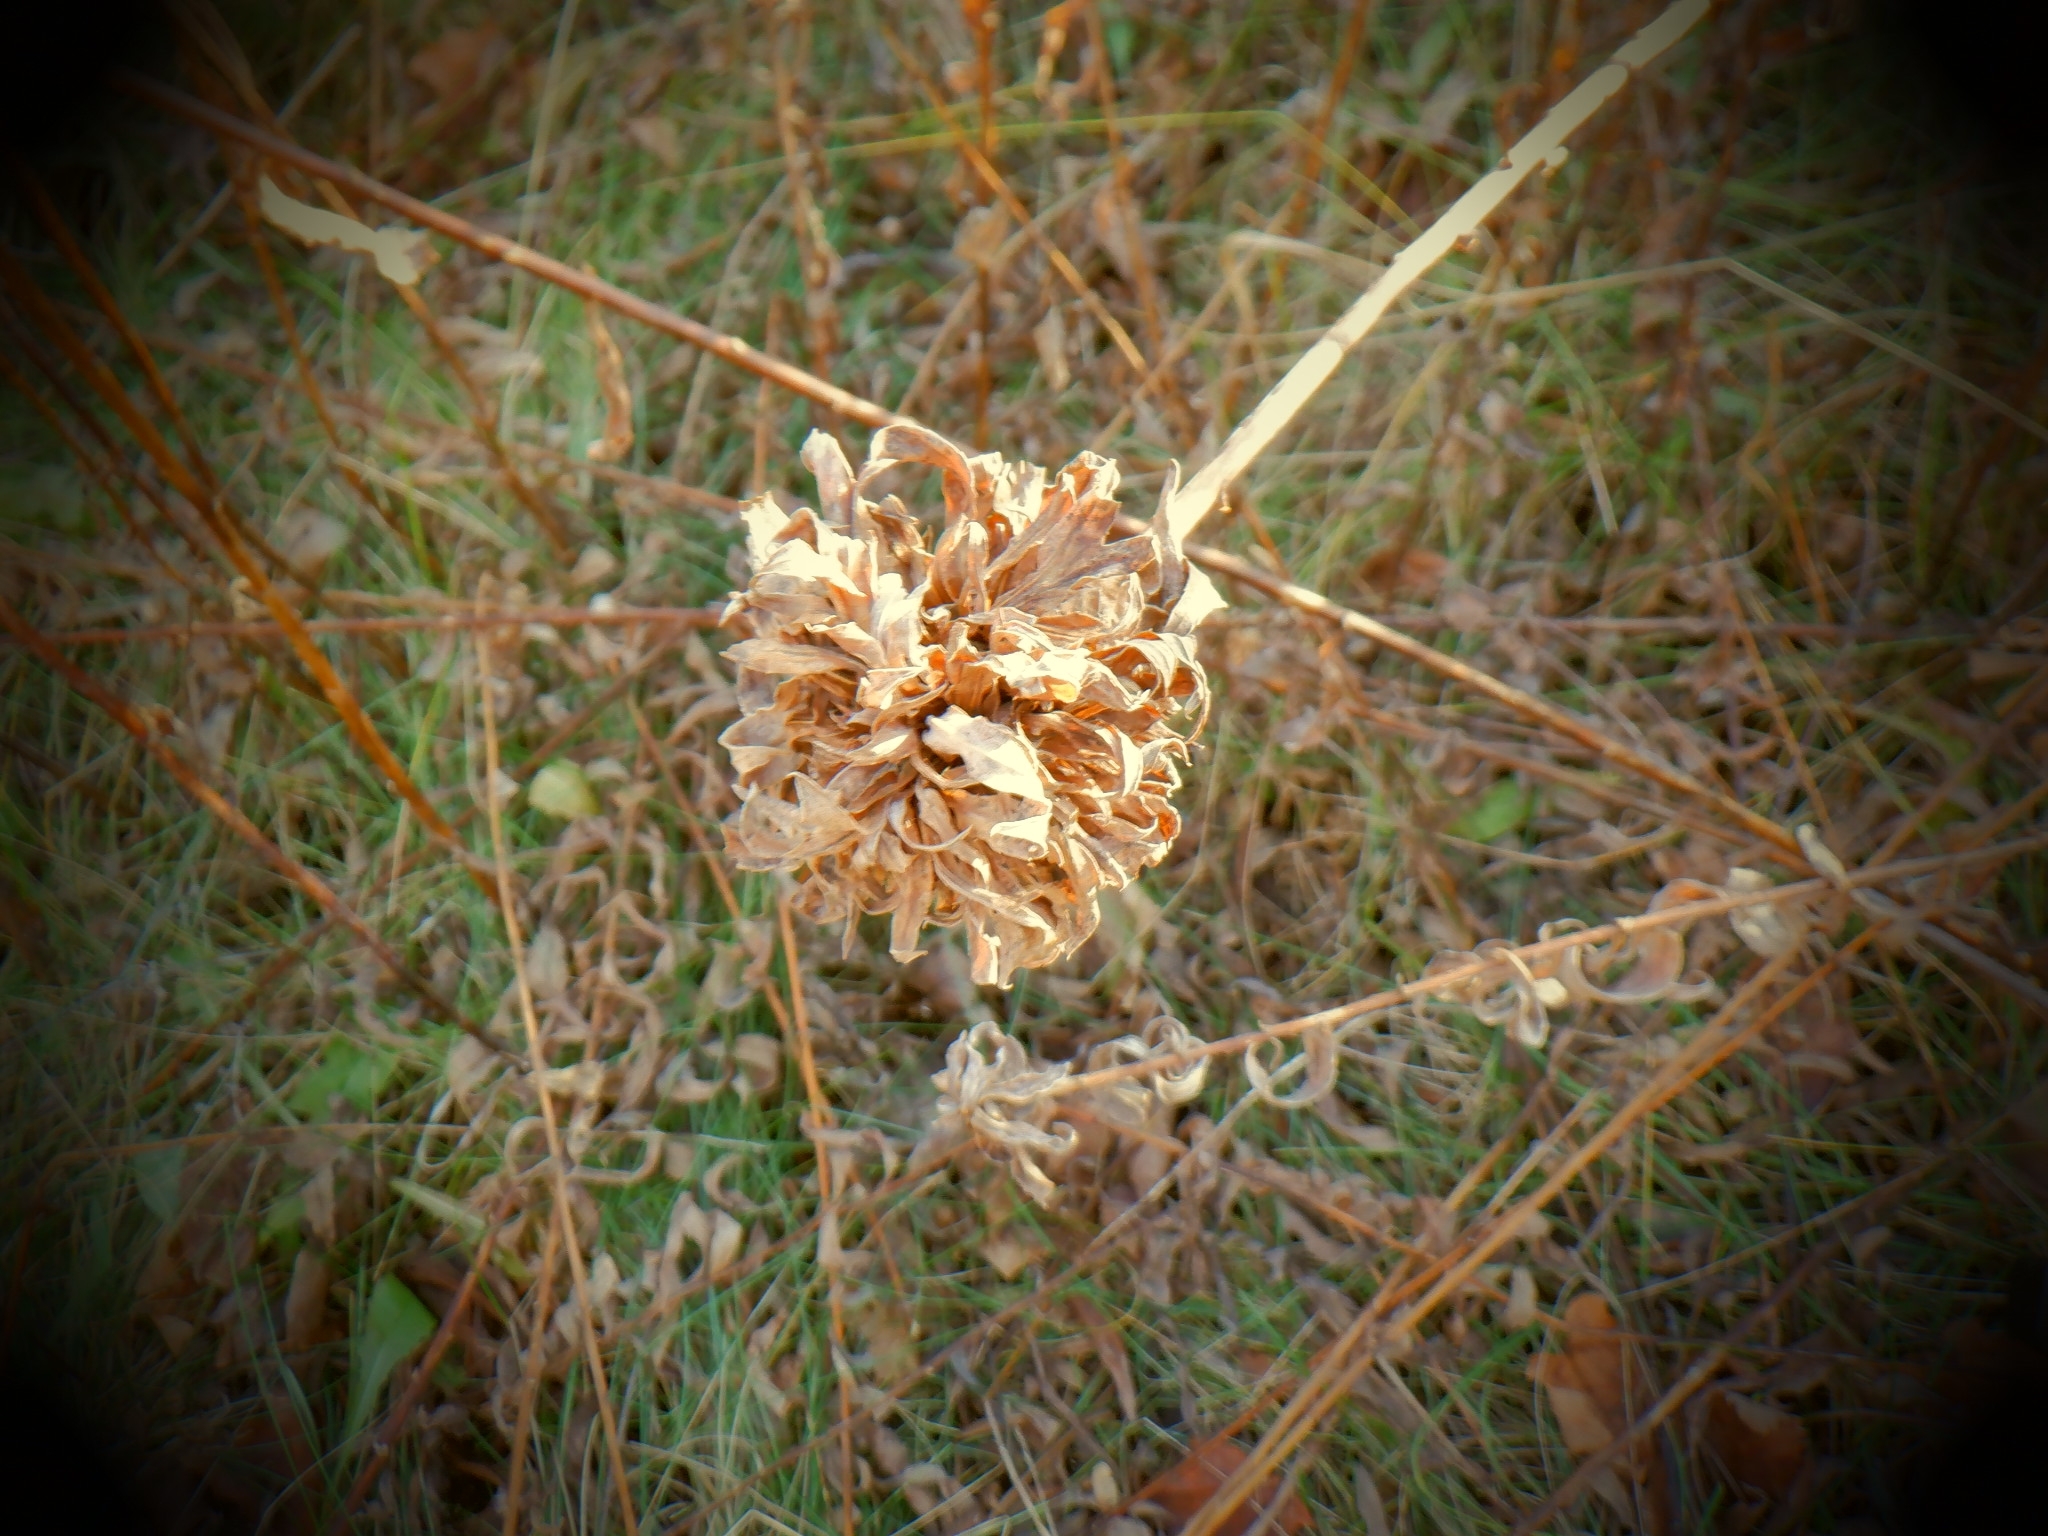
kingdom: Animalia
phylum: Arthropoda
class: Insecta
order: Diptera
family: Cecidomyiidae
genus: Rhopalomyia
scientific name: Rhopalomyia solidaginis
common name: Goldenrod bunch gall midge
